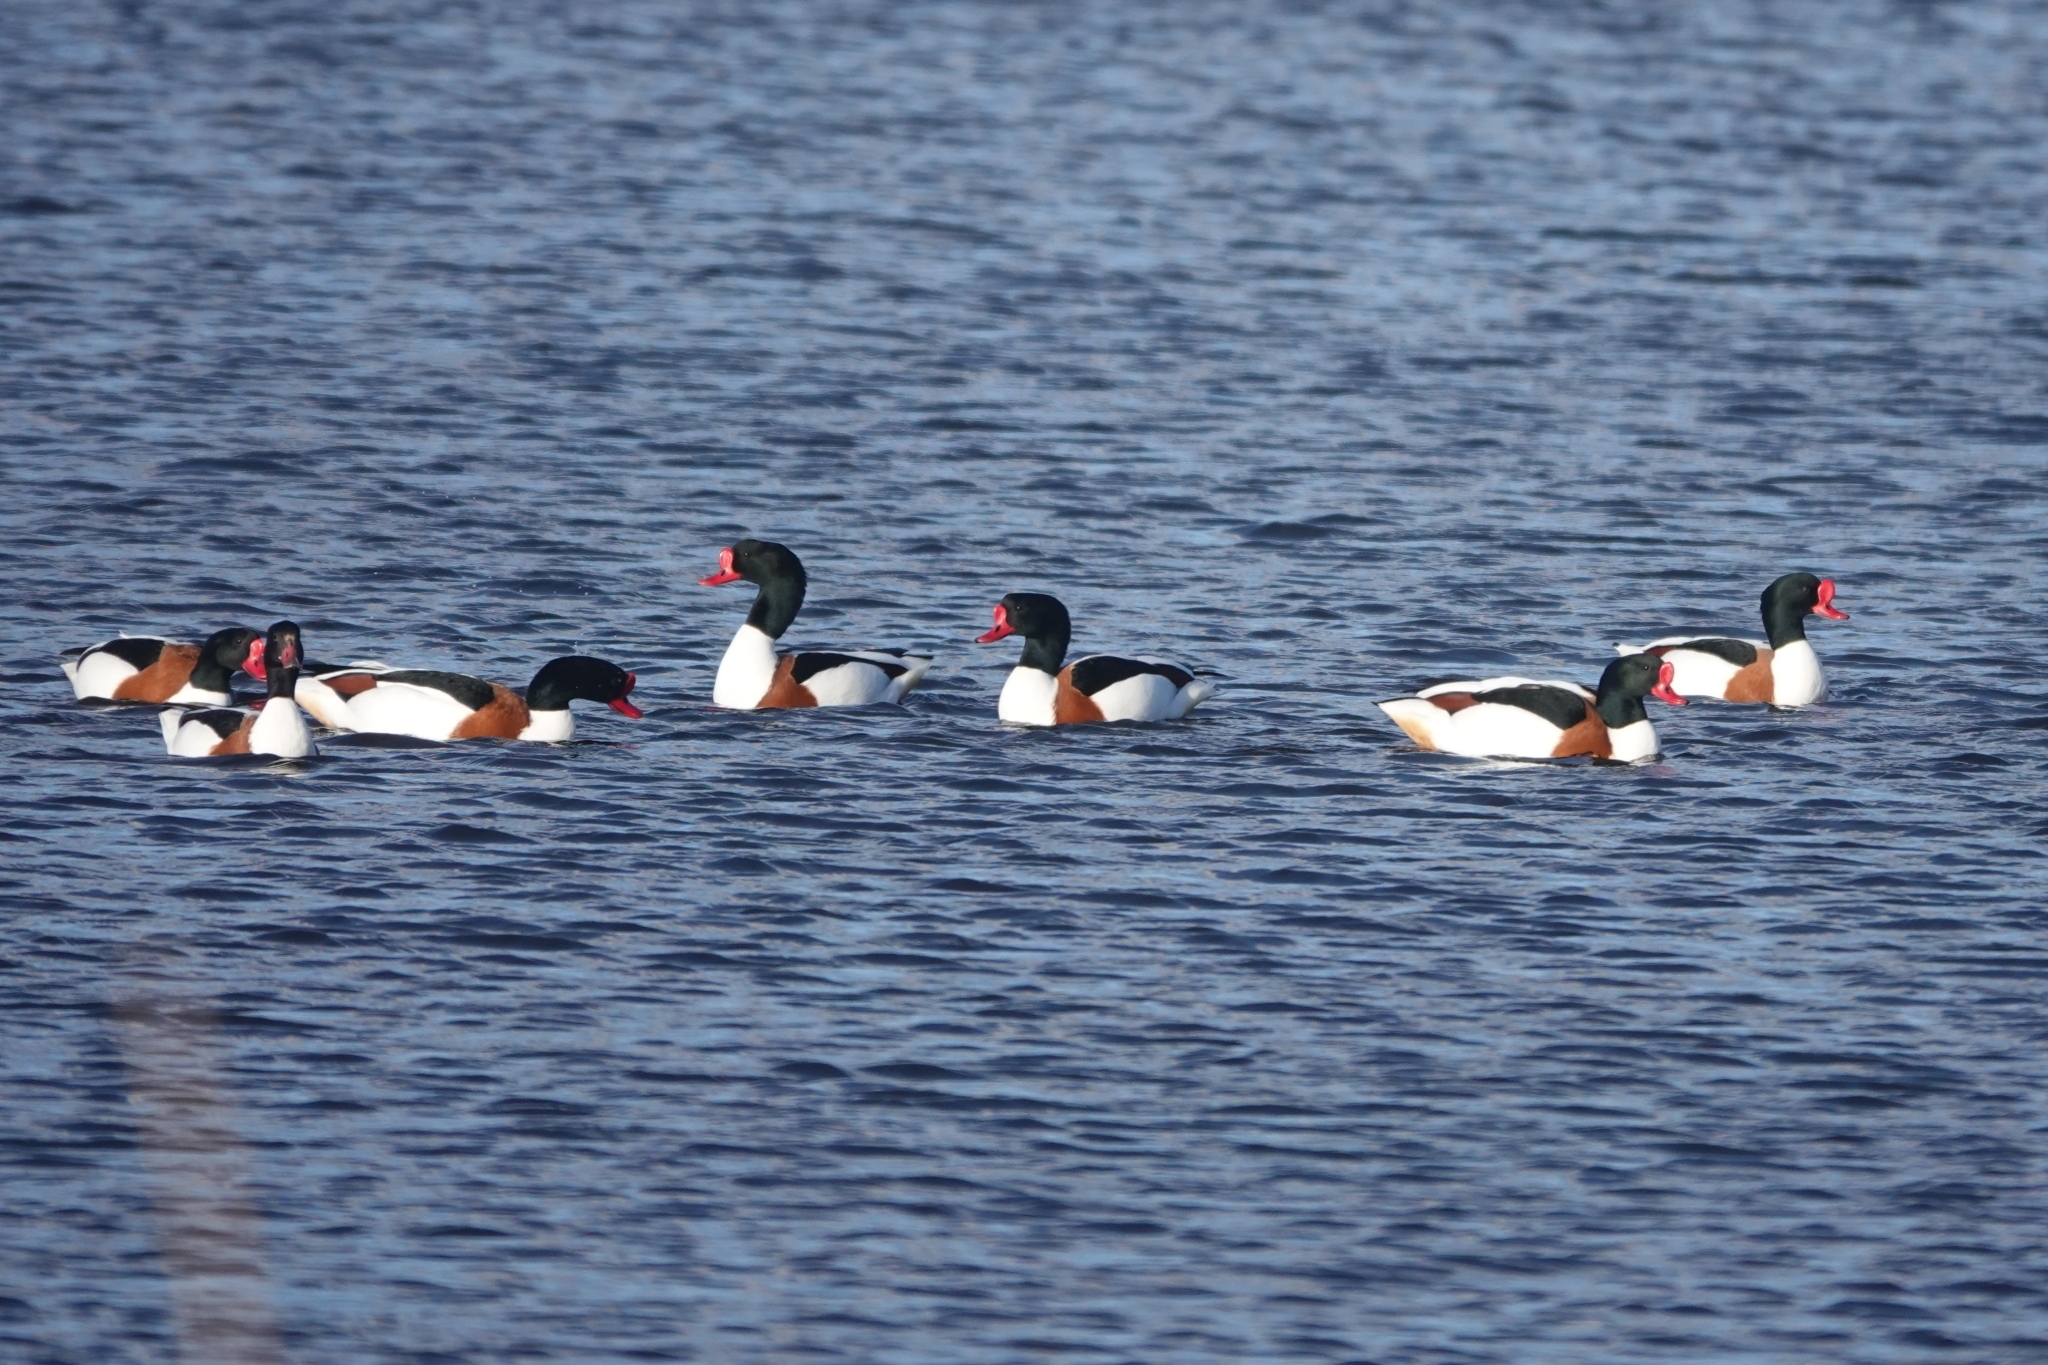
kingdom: Animalia
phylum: Chordata
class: Aves
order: Anseriformes
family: Anatidae
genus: Tadorna
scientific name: Tadorna tadorna
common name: Common shelduck
